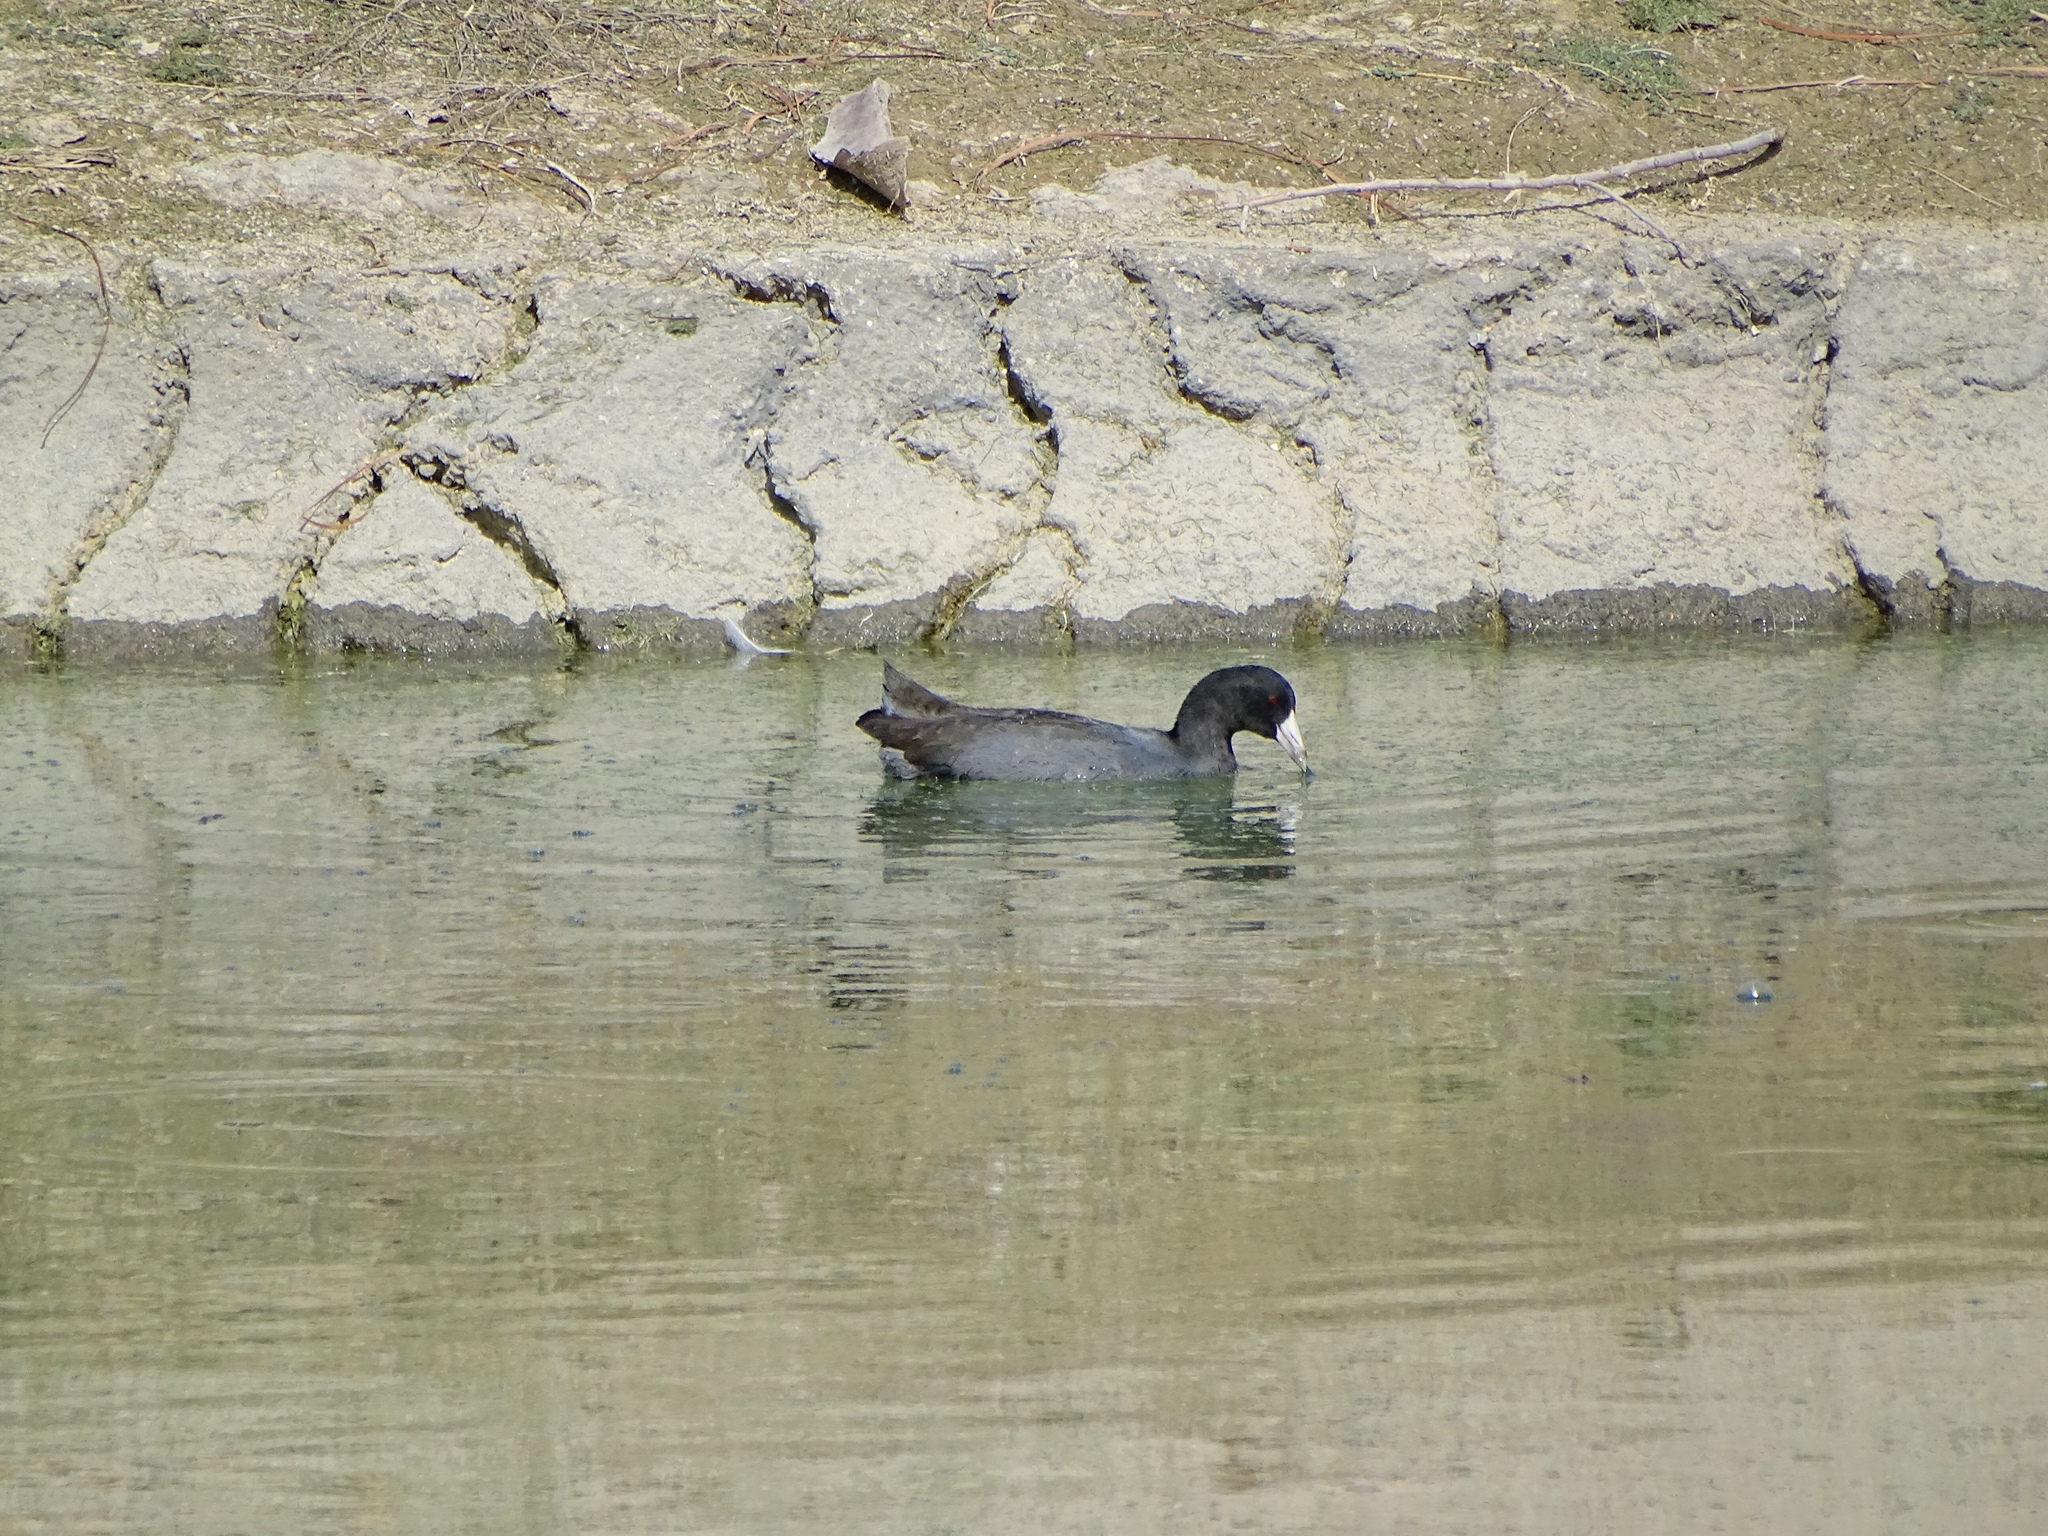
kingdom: Animalia
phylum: Chordata
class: Aves
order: Gruiformes
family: Rallidae
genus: Fulica
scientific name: Fulica americana
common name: American coot
